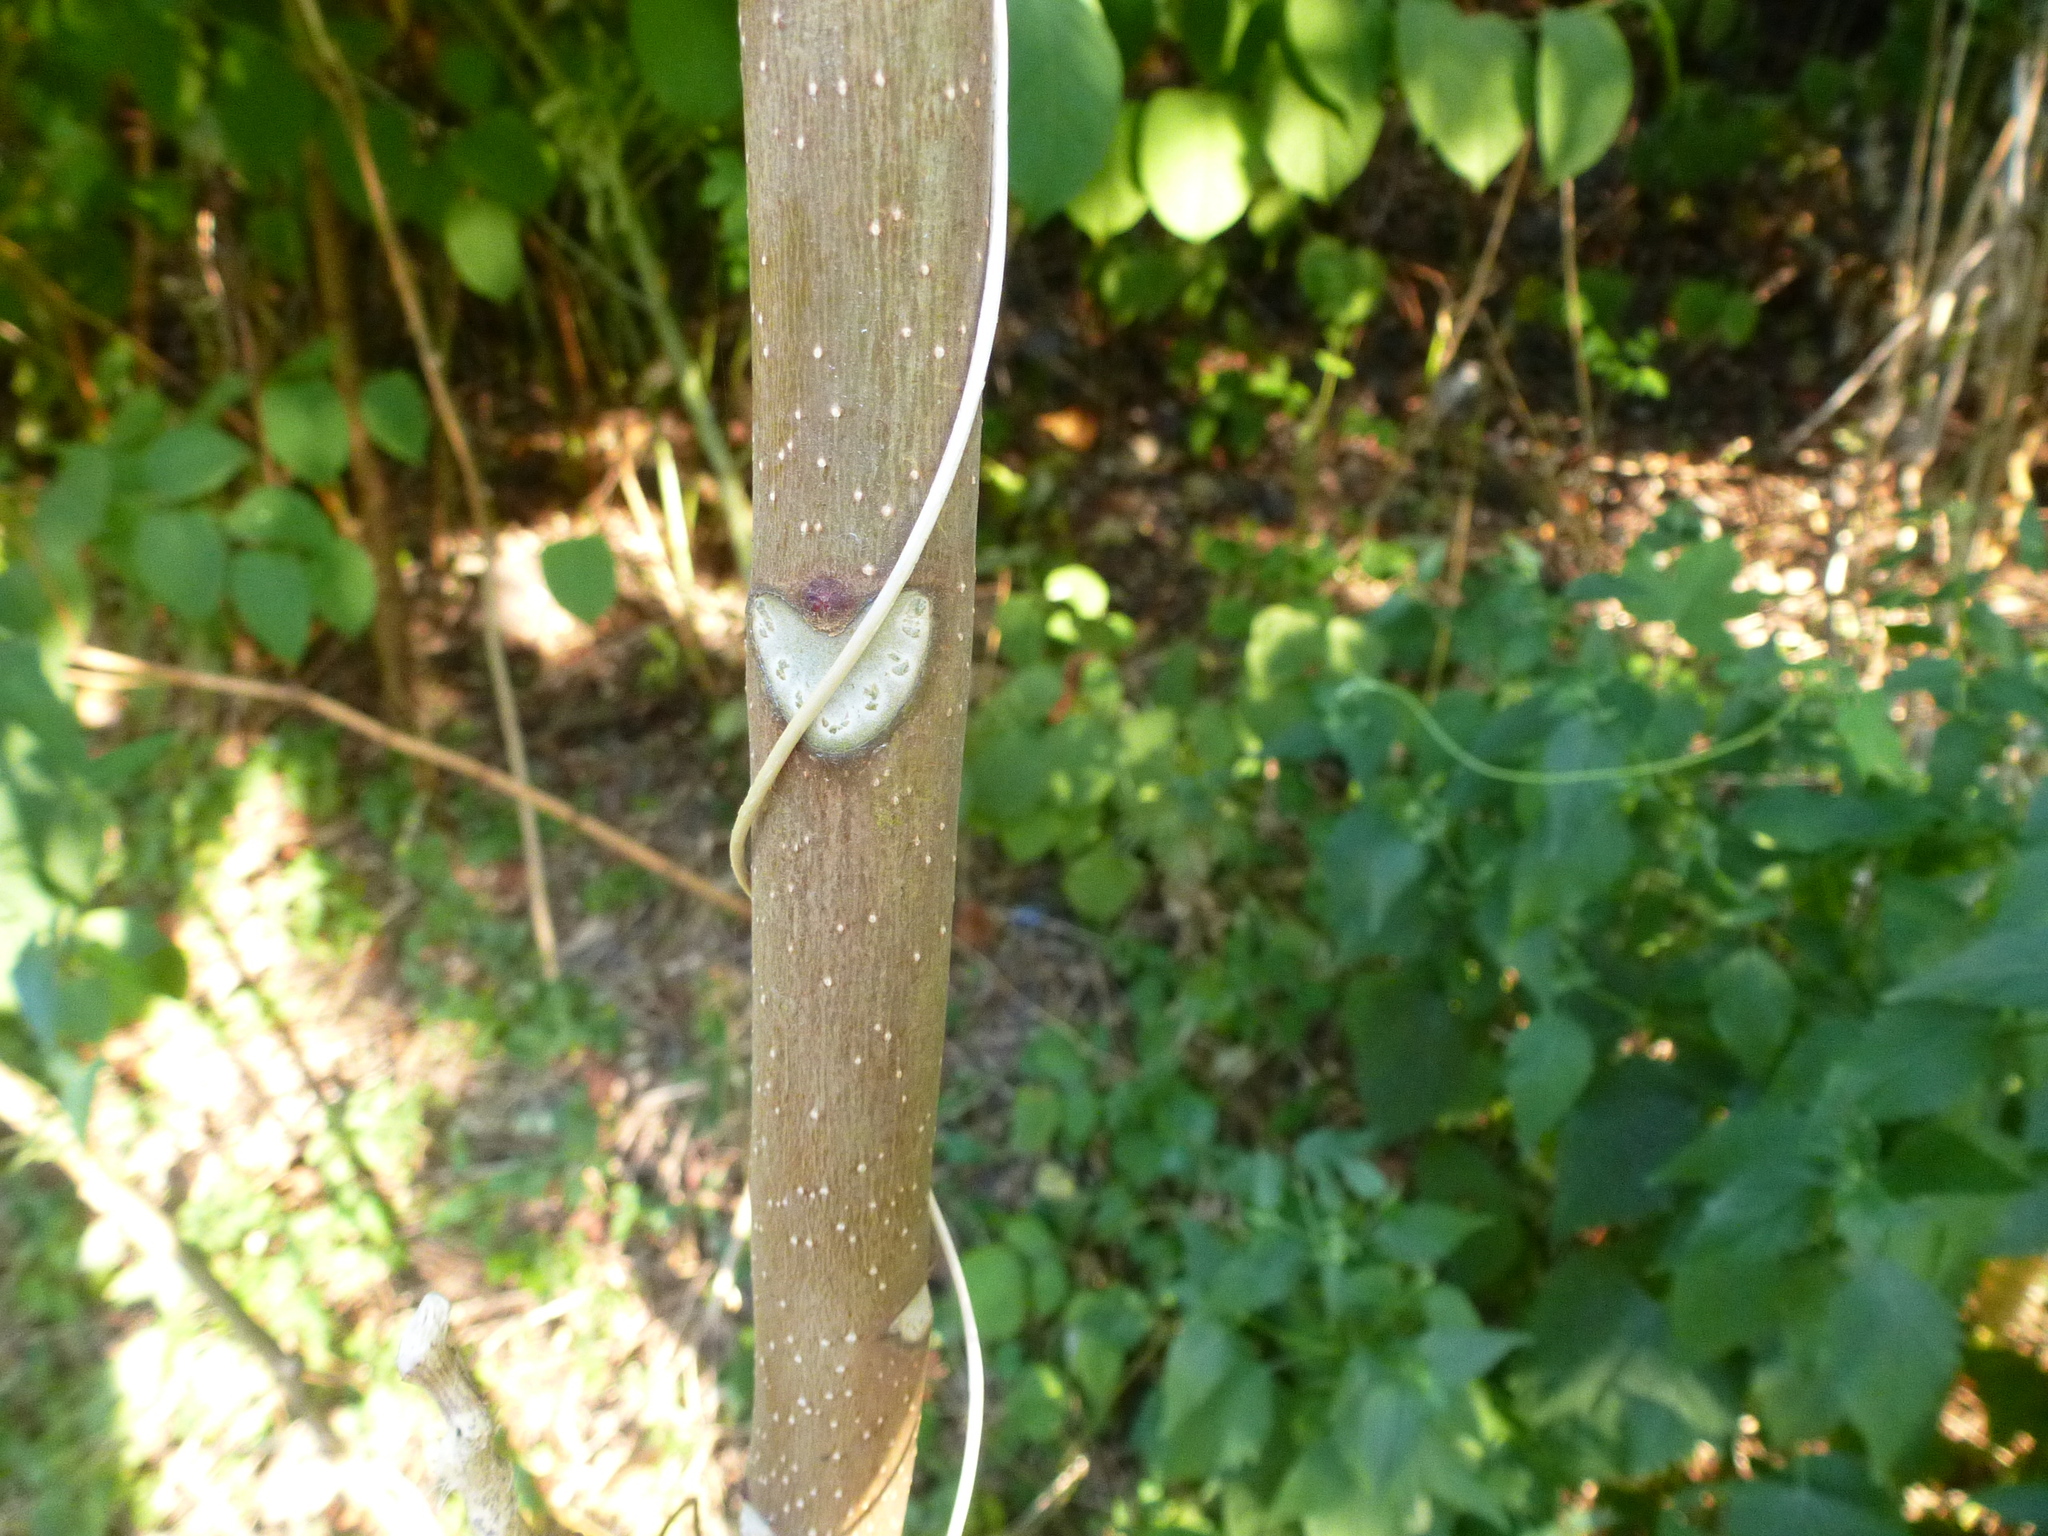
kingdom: Plantae
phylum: Tracheophyta
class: Magnoliopsida
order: Sapindales
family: Simaroubaceae
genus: Ailanthus
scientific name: Ailanthus altissima
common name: Tree-of-heaven
